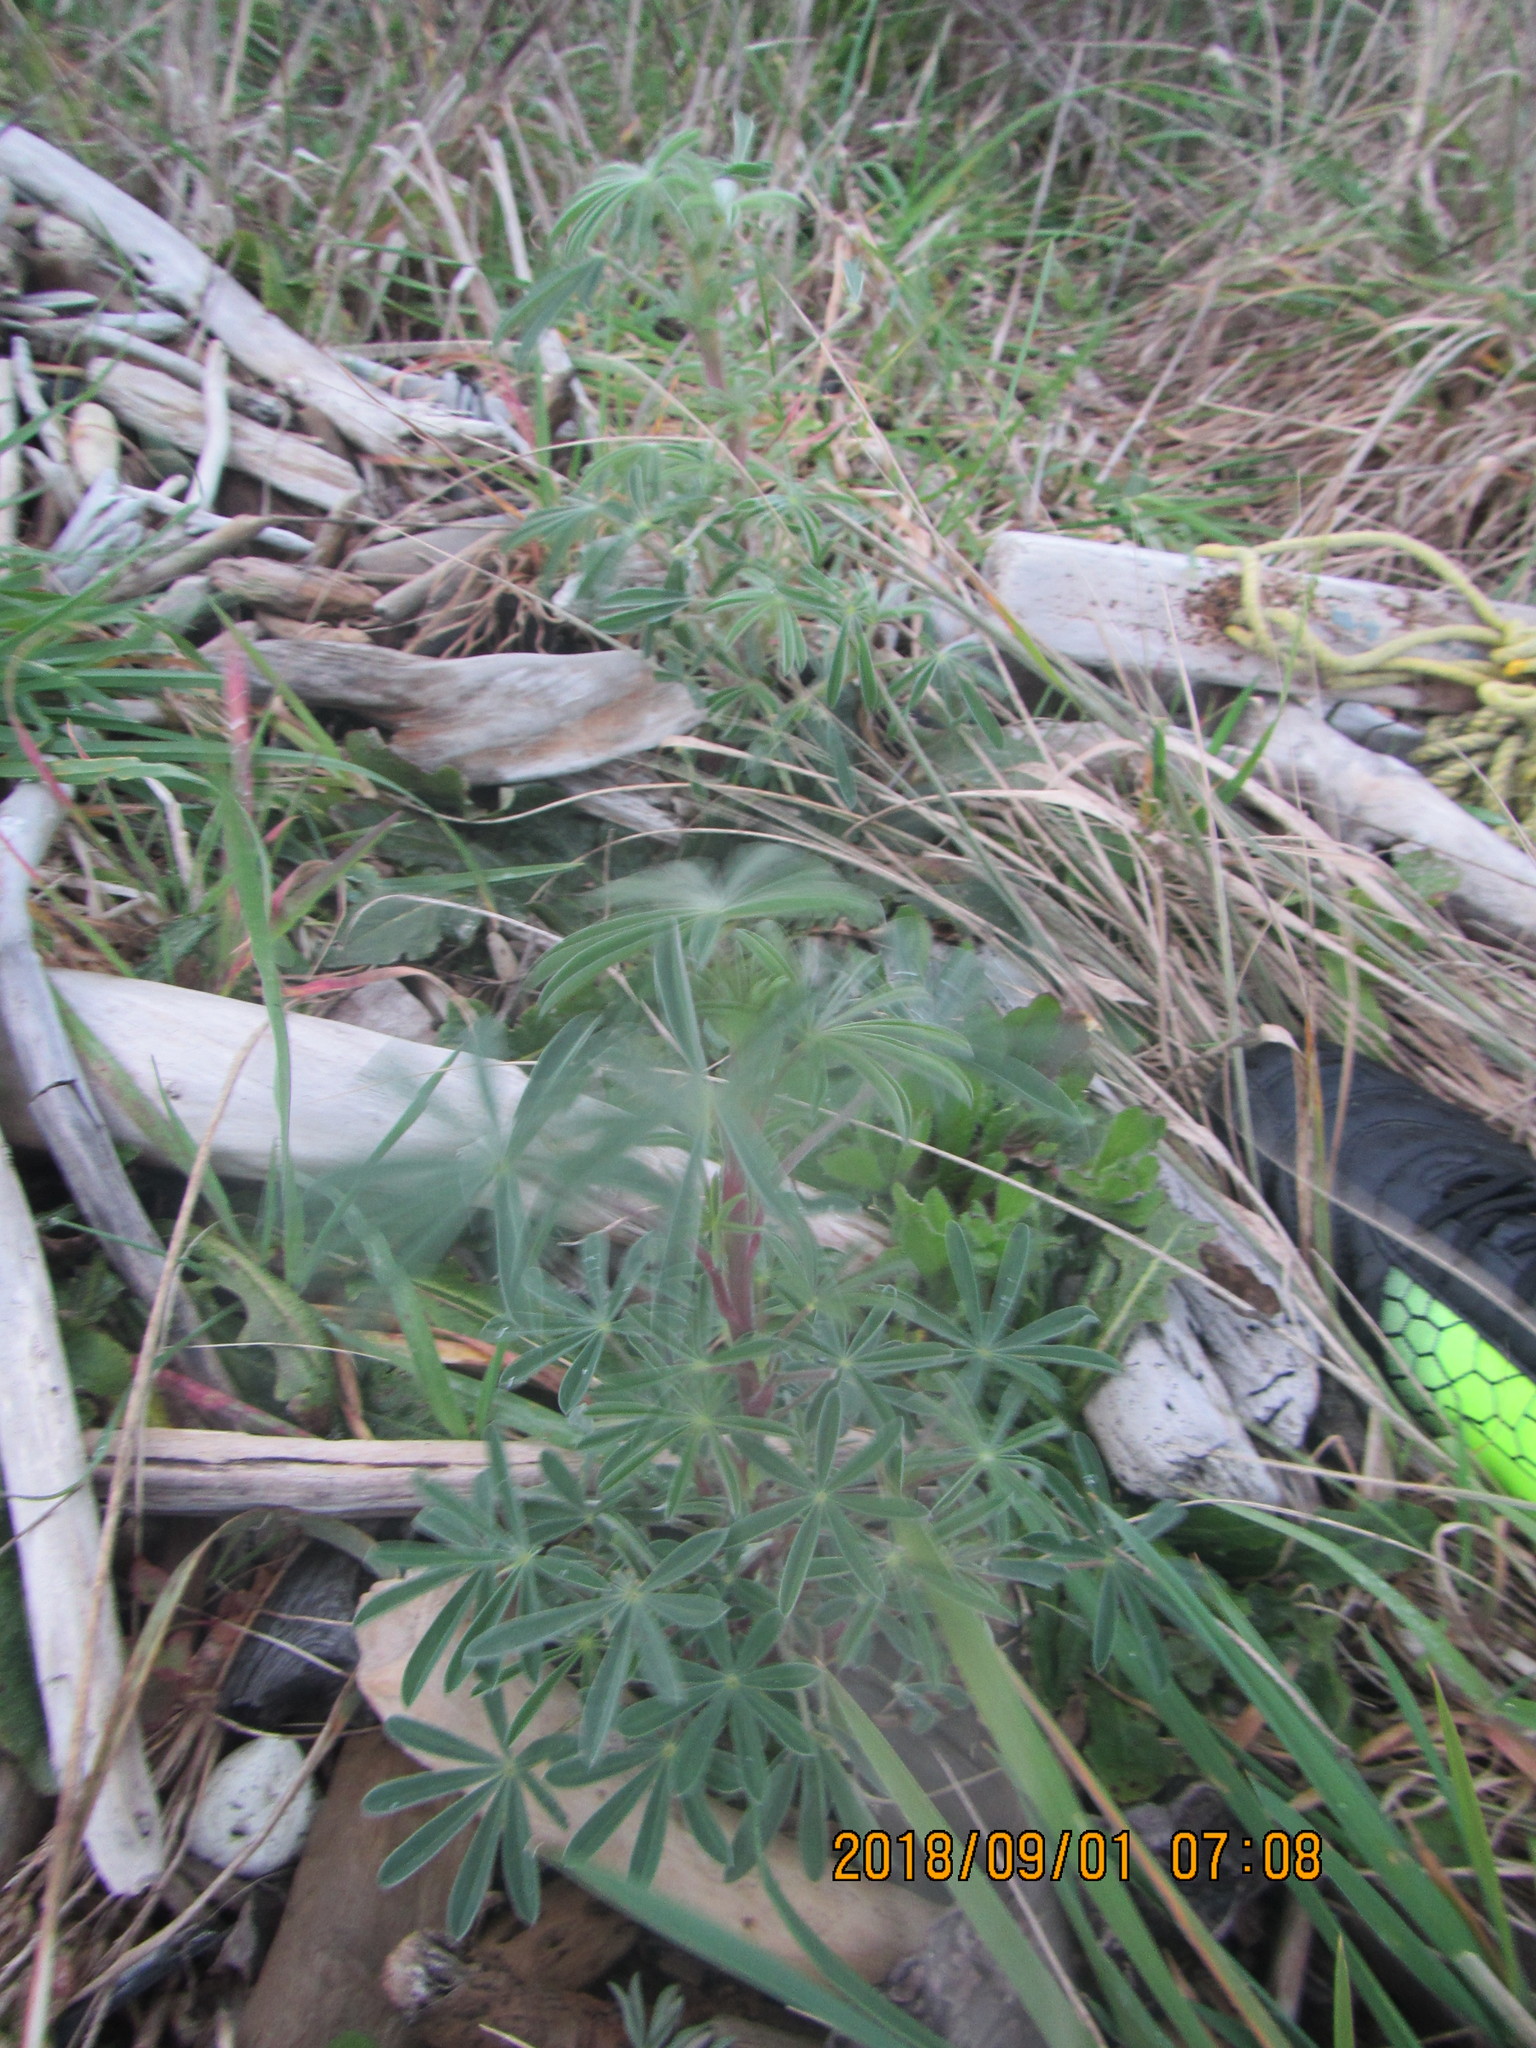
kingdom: Plantae
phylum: Tracheophyta
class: Magnoliopsida
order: Fabales
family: Fabaceae
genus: Lupinus
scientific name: Lupinus arboreus
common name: Yellow bush lupine
